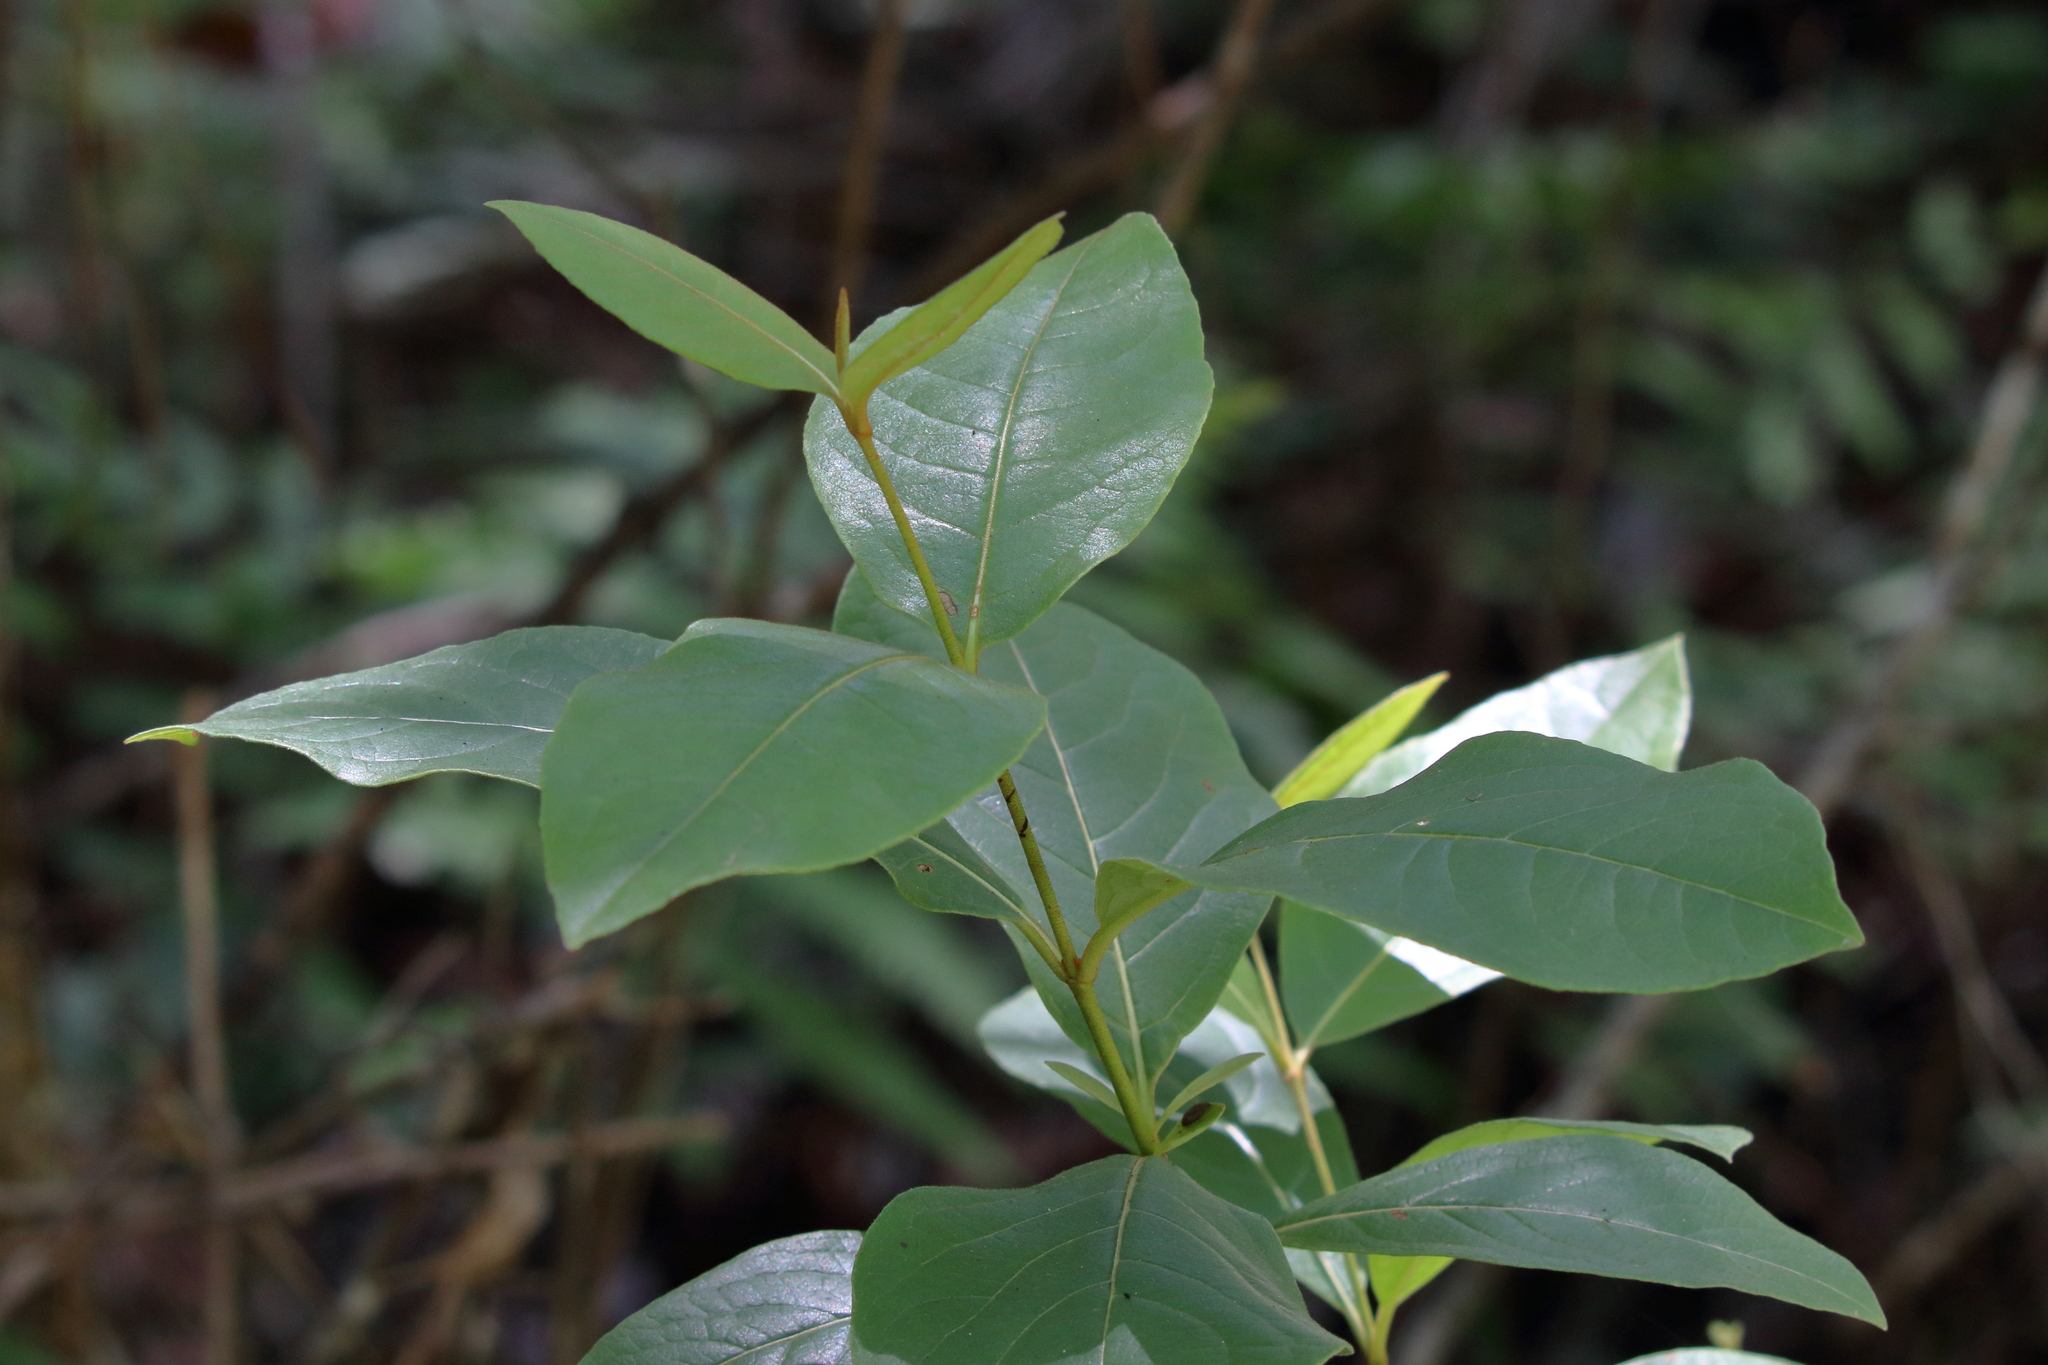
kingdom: Plantae
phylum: Tracheophyta
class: Magnoliopsida
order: Dipsacales
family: Viburnaceae
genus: Viburnum
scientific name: Viburnum nudum
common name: Possum haw
